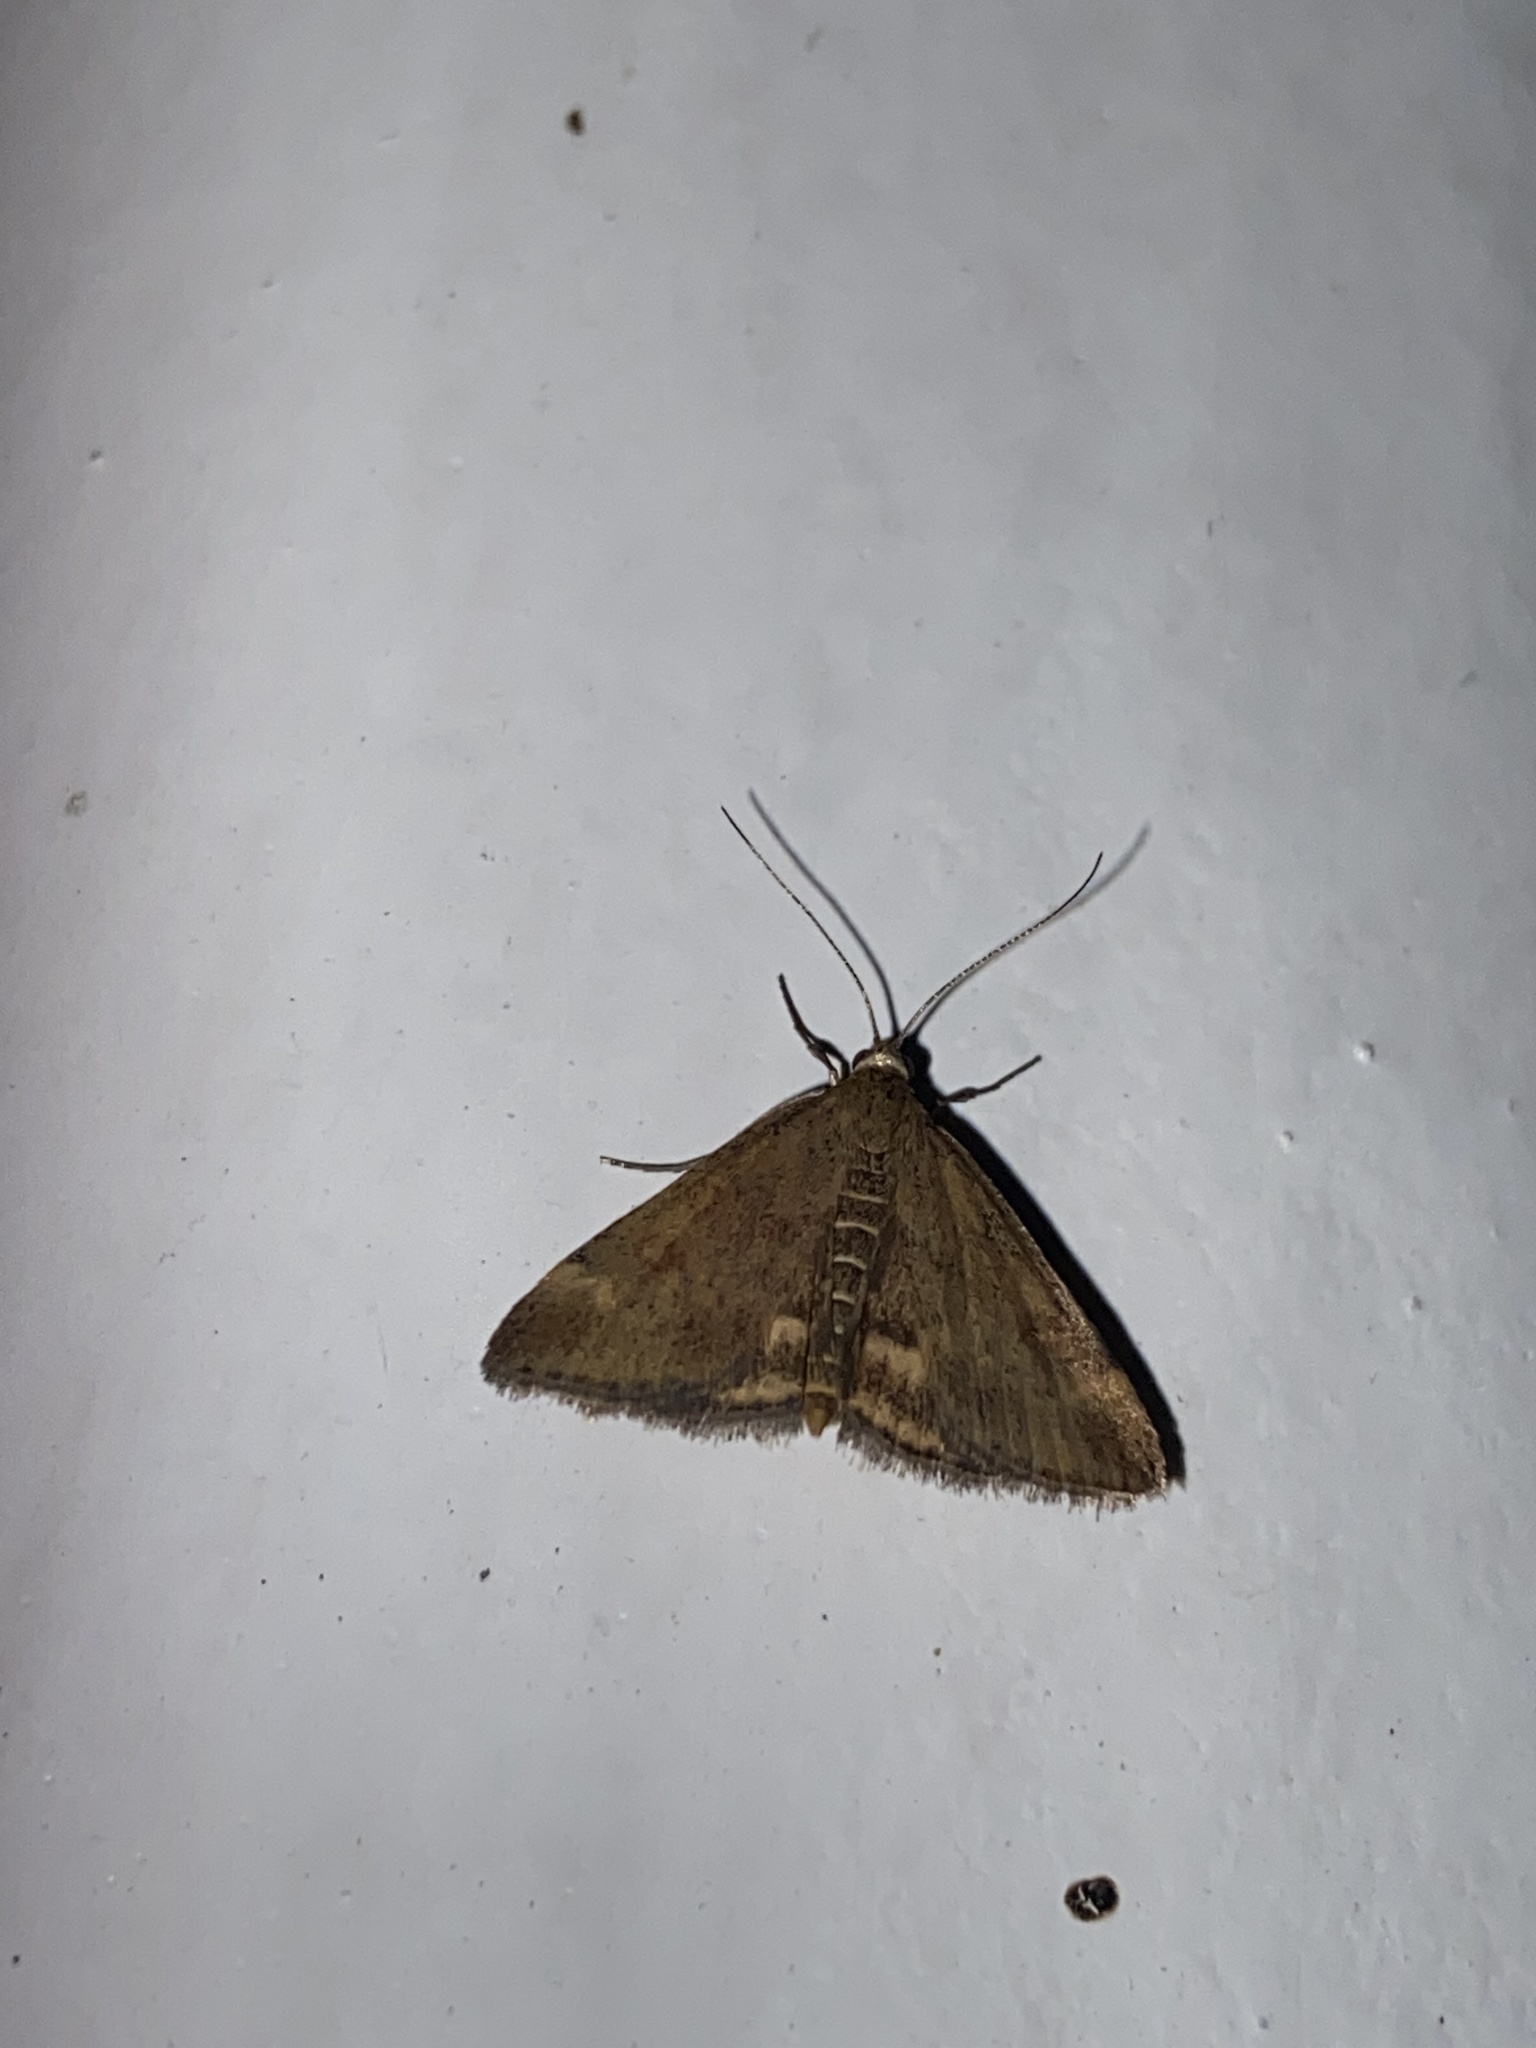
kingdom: Animalia
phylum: Arthropoda
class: Insecta
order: Lepidoptera
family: Crambidae
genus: Pyrausta
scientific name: Pyrausta despicata
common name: Straw-barred pearl
